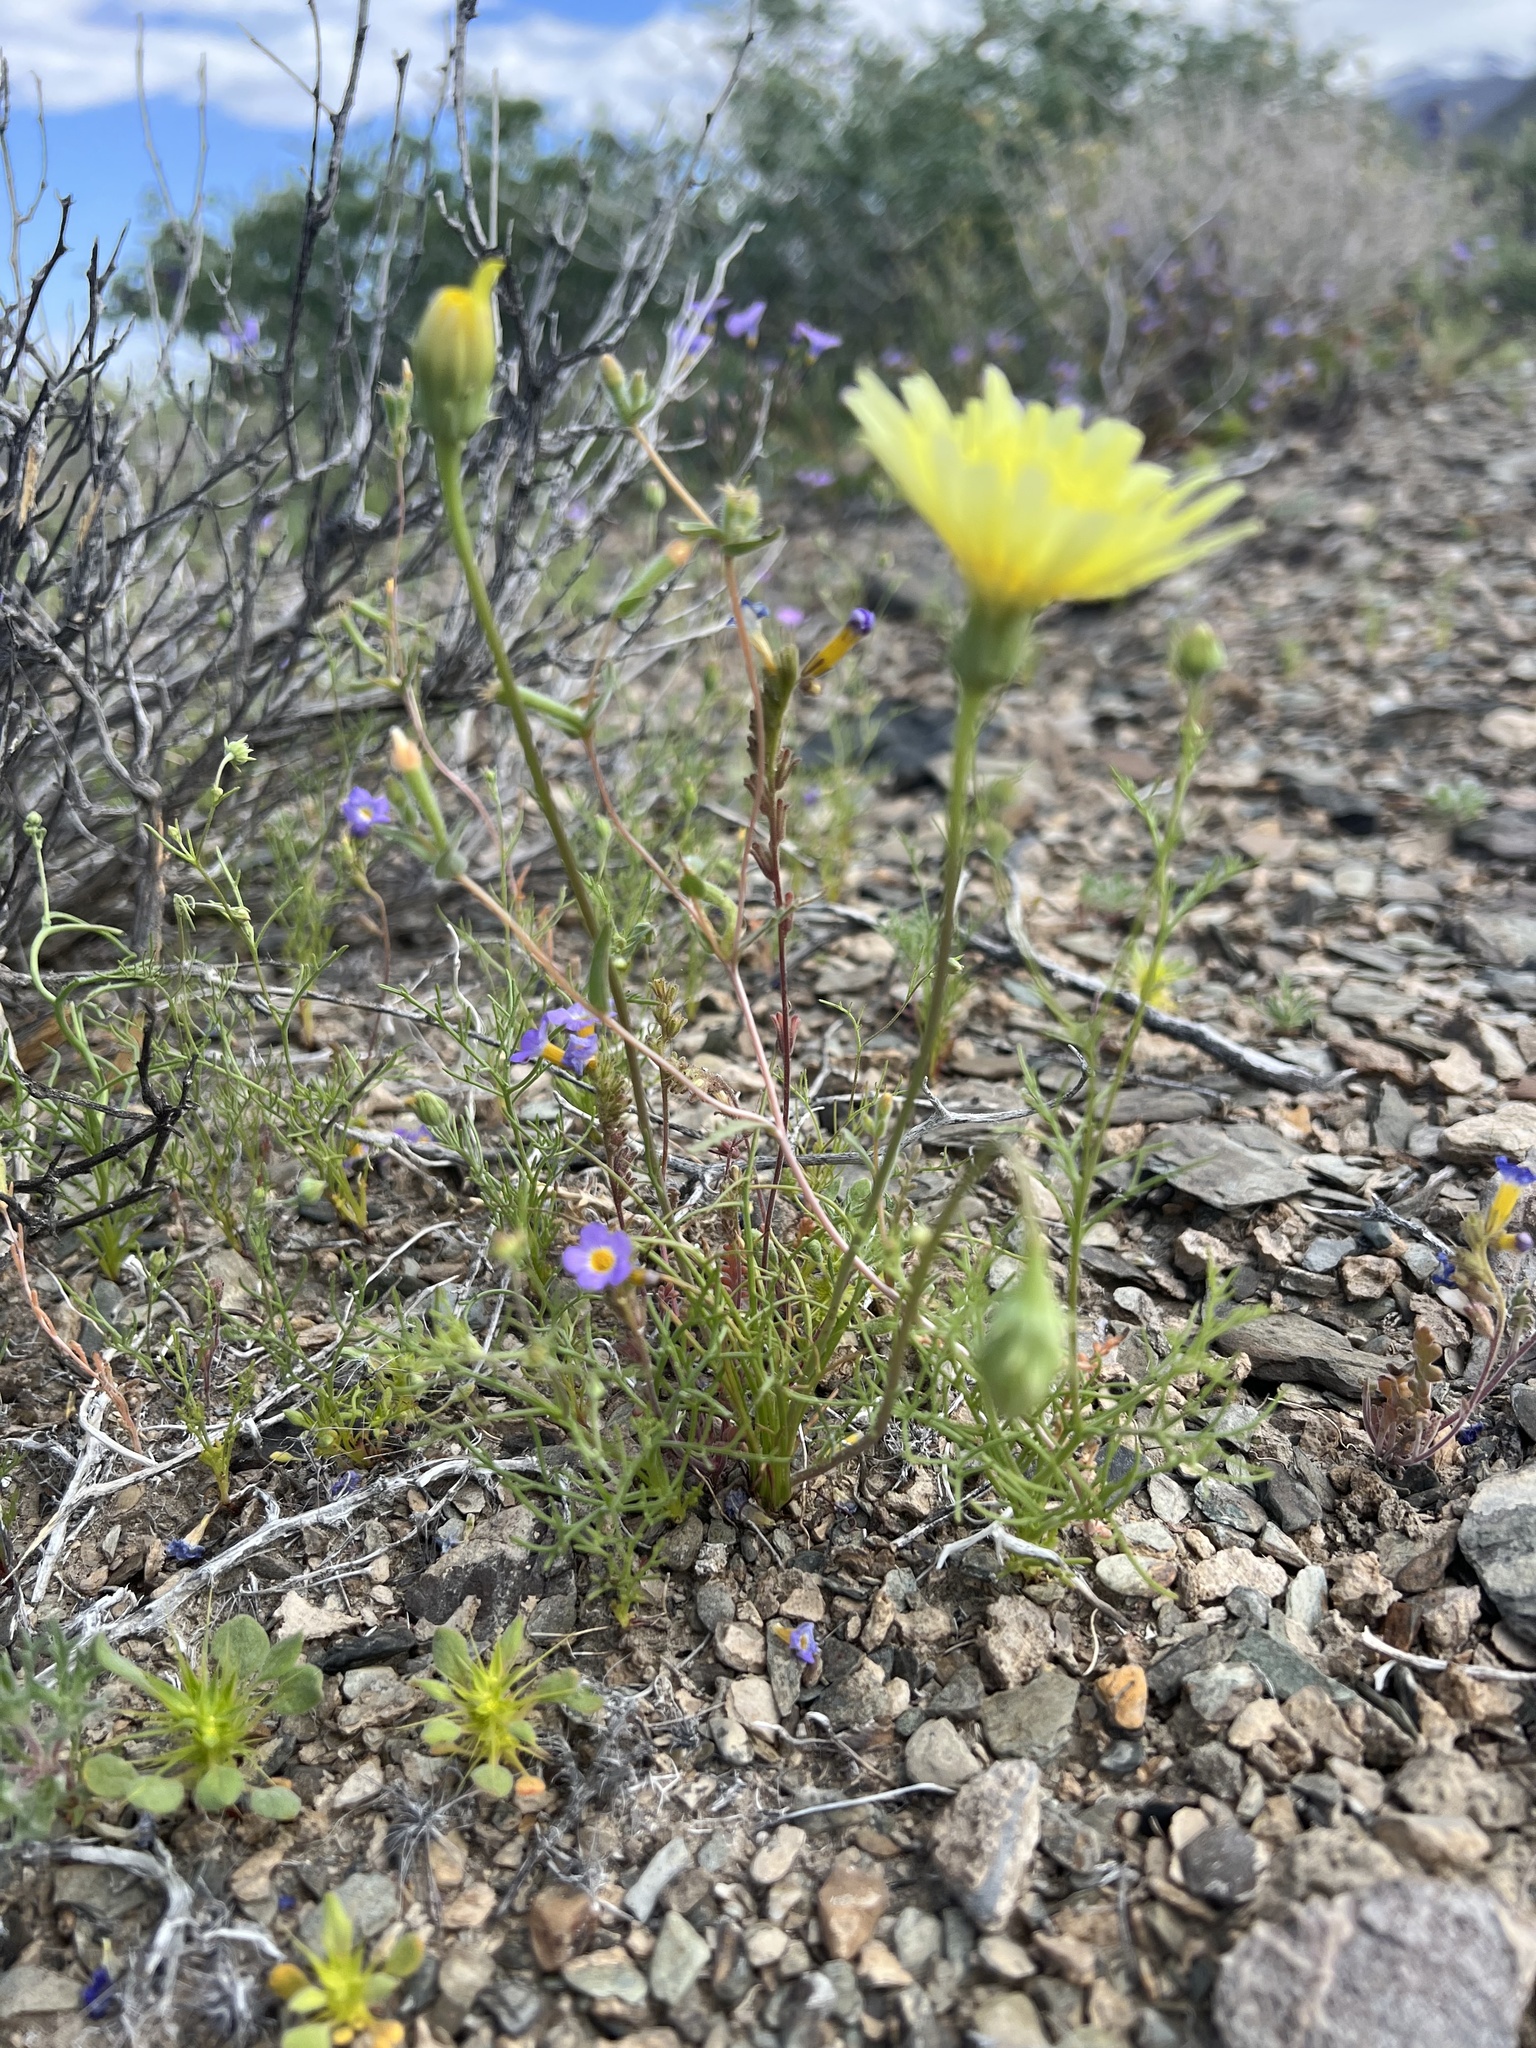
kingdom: Plantae
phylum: Tracheophyta
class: Magnoliopsida
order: Asterales
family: Asteraceae
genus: Malacothrix
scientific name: Malacothrix glabrata
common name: Smooth desert-dandelion
